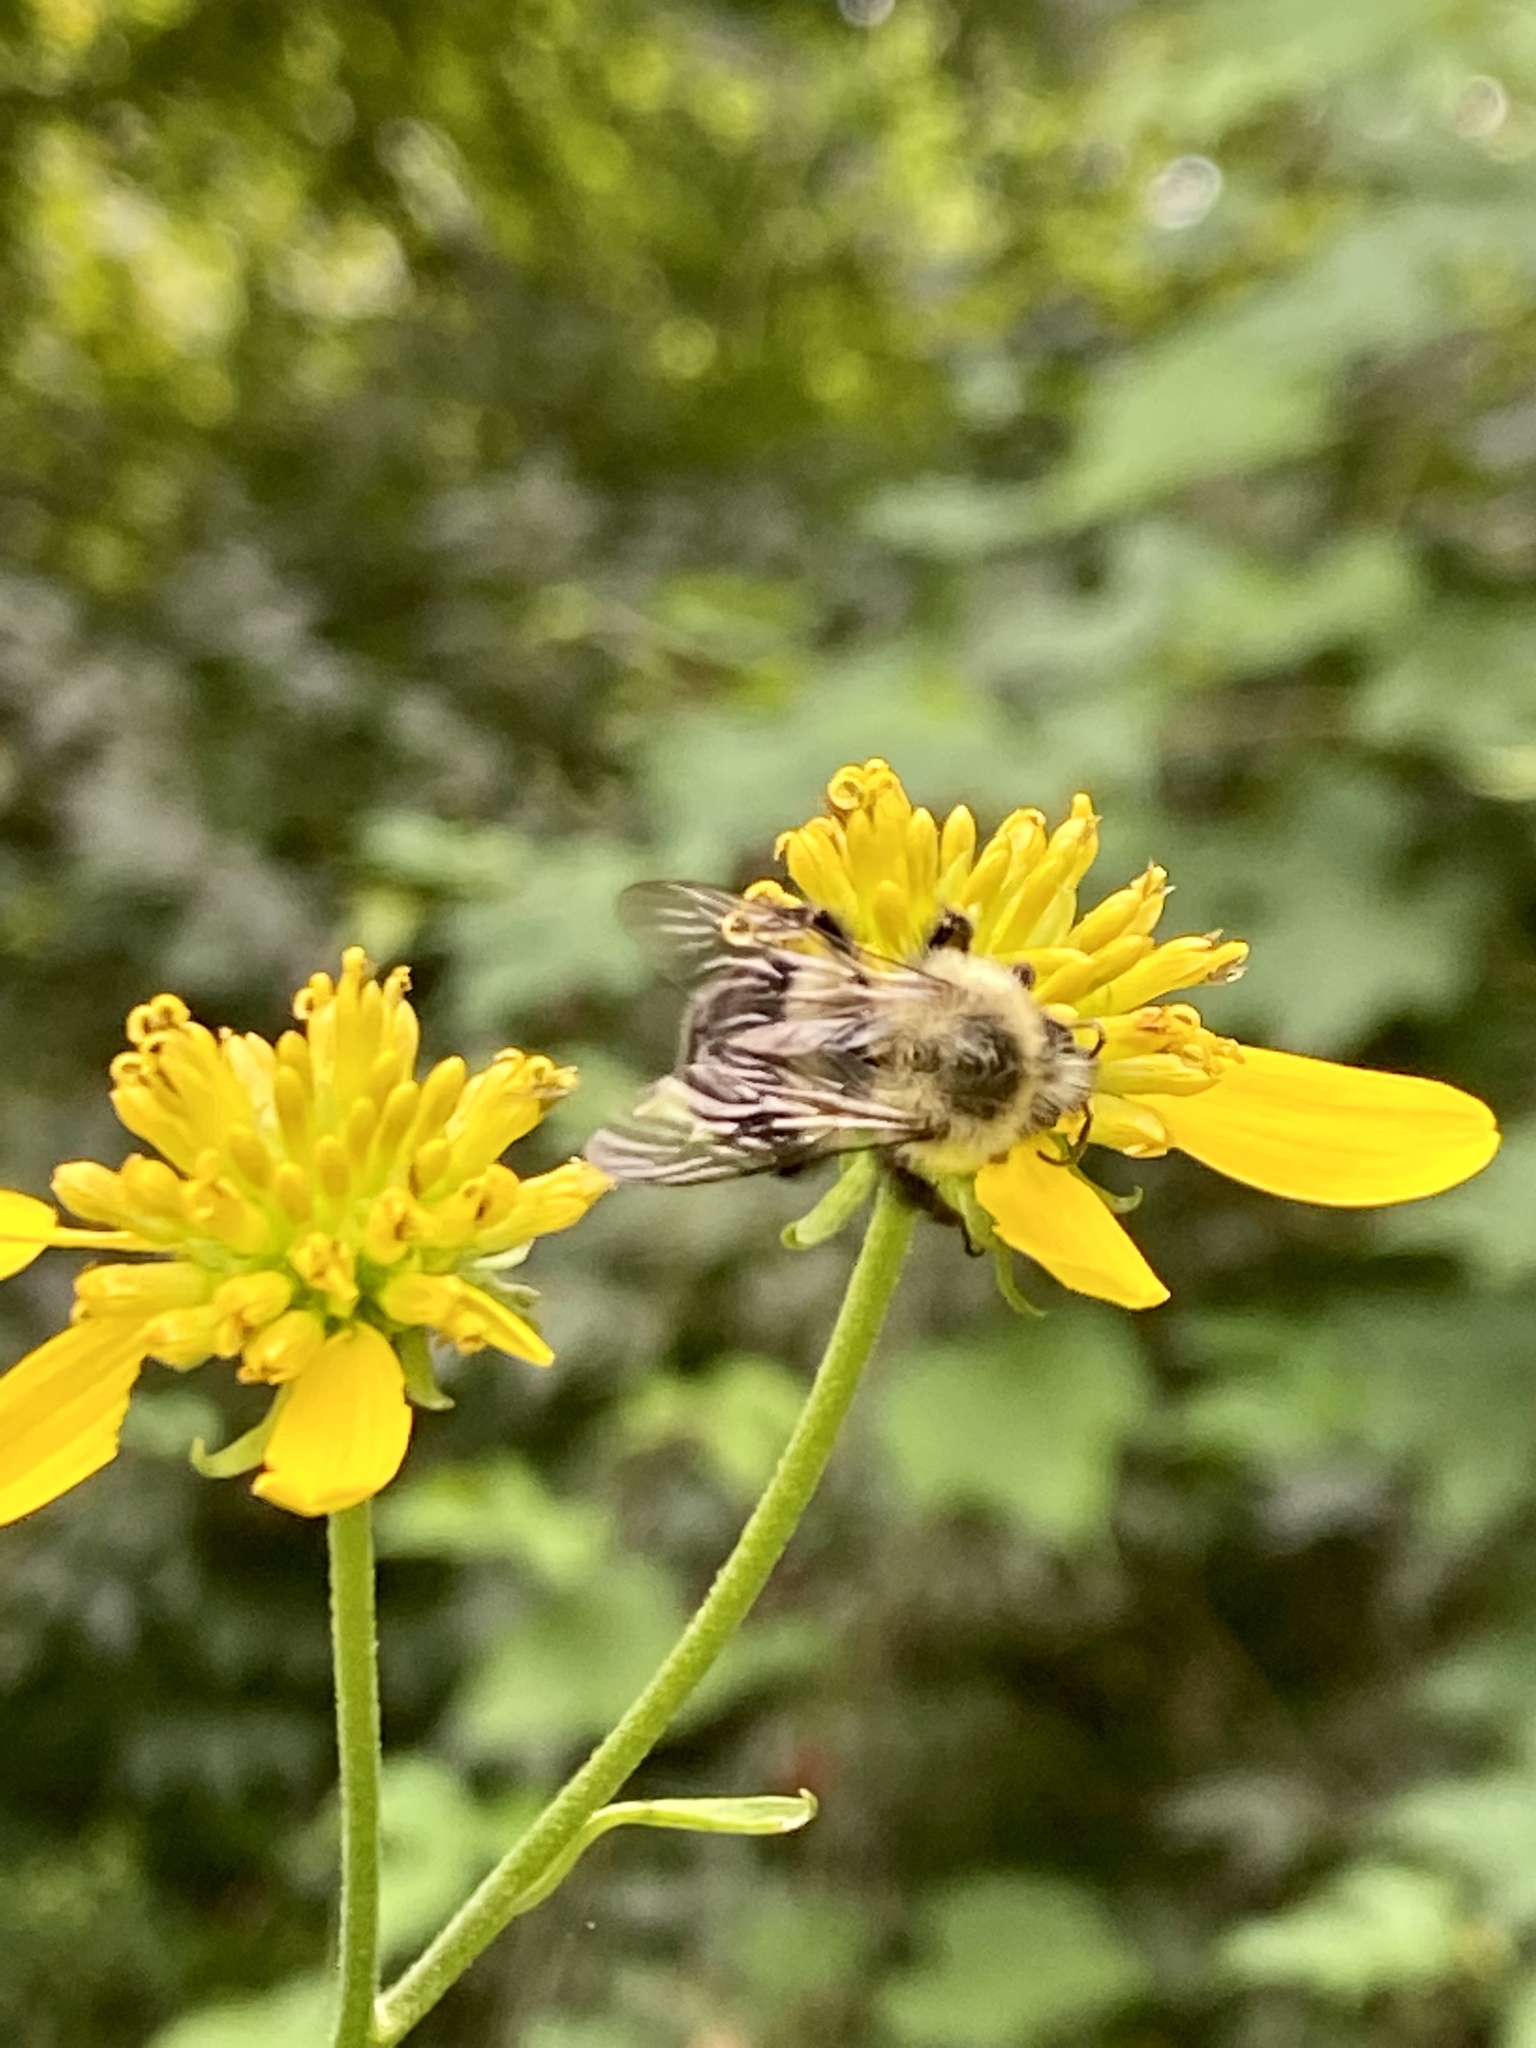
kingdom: Animalia
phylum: Arthropoda
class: Insecta
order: Hymenoptera
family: Apidae
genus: Bombus
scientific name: Bombus impatiens
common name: Common eastern bumble bee
